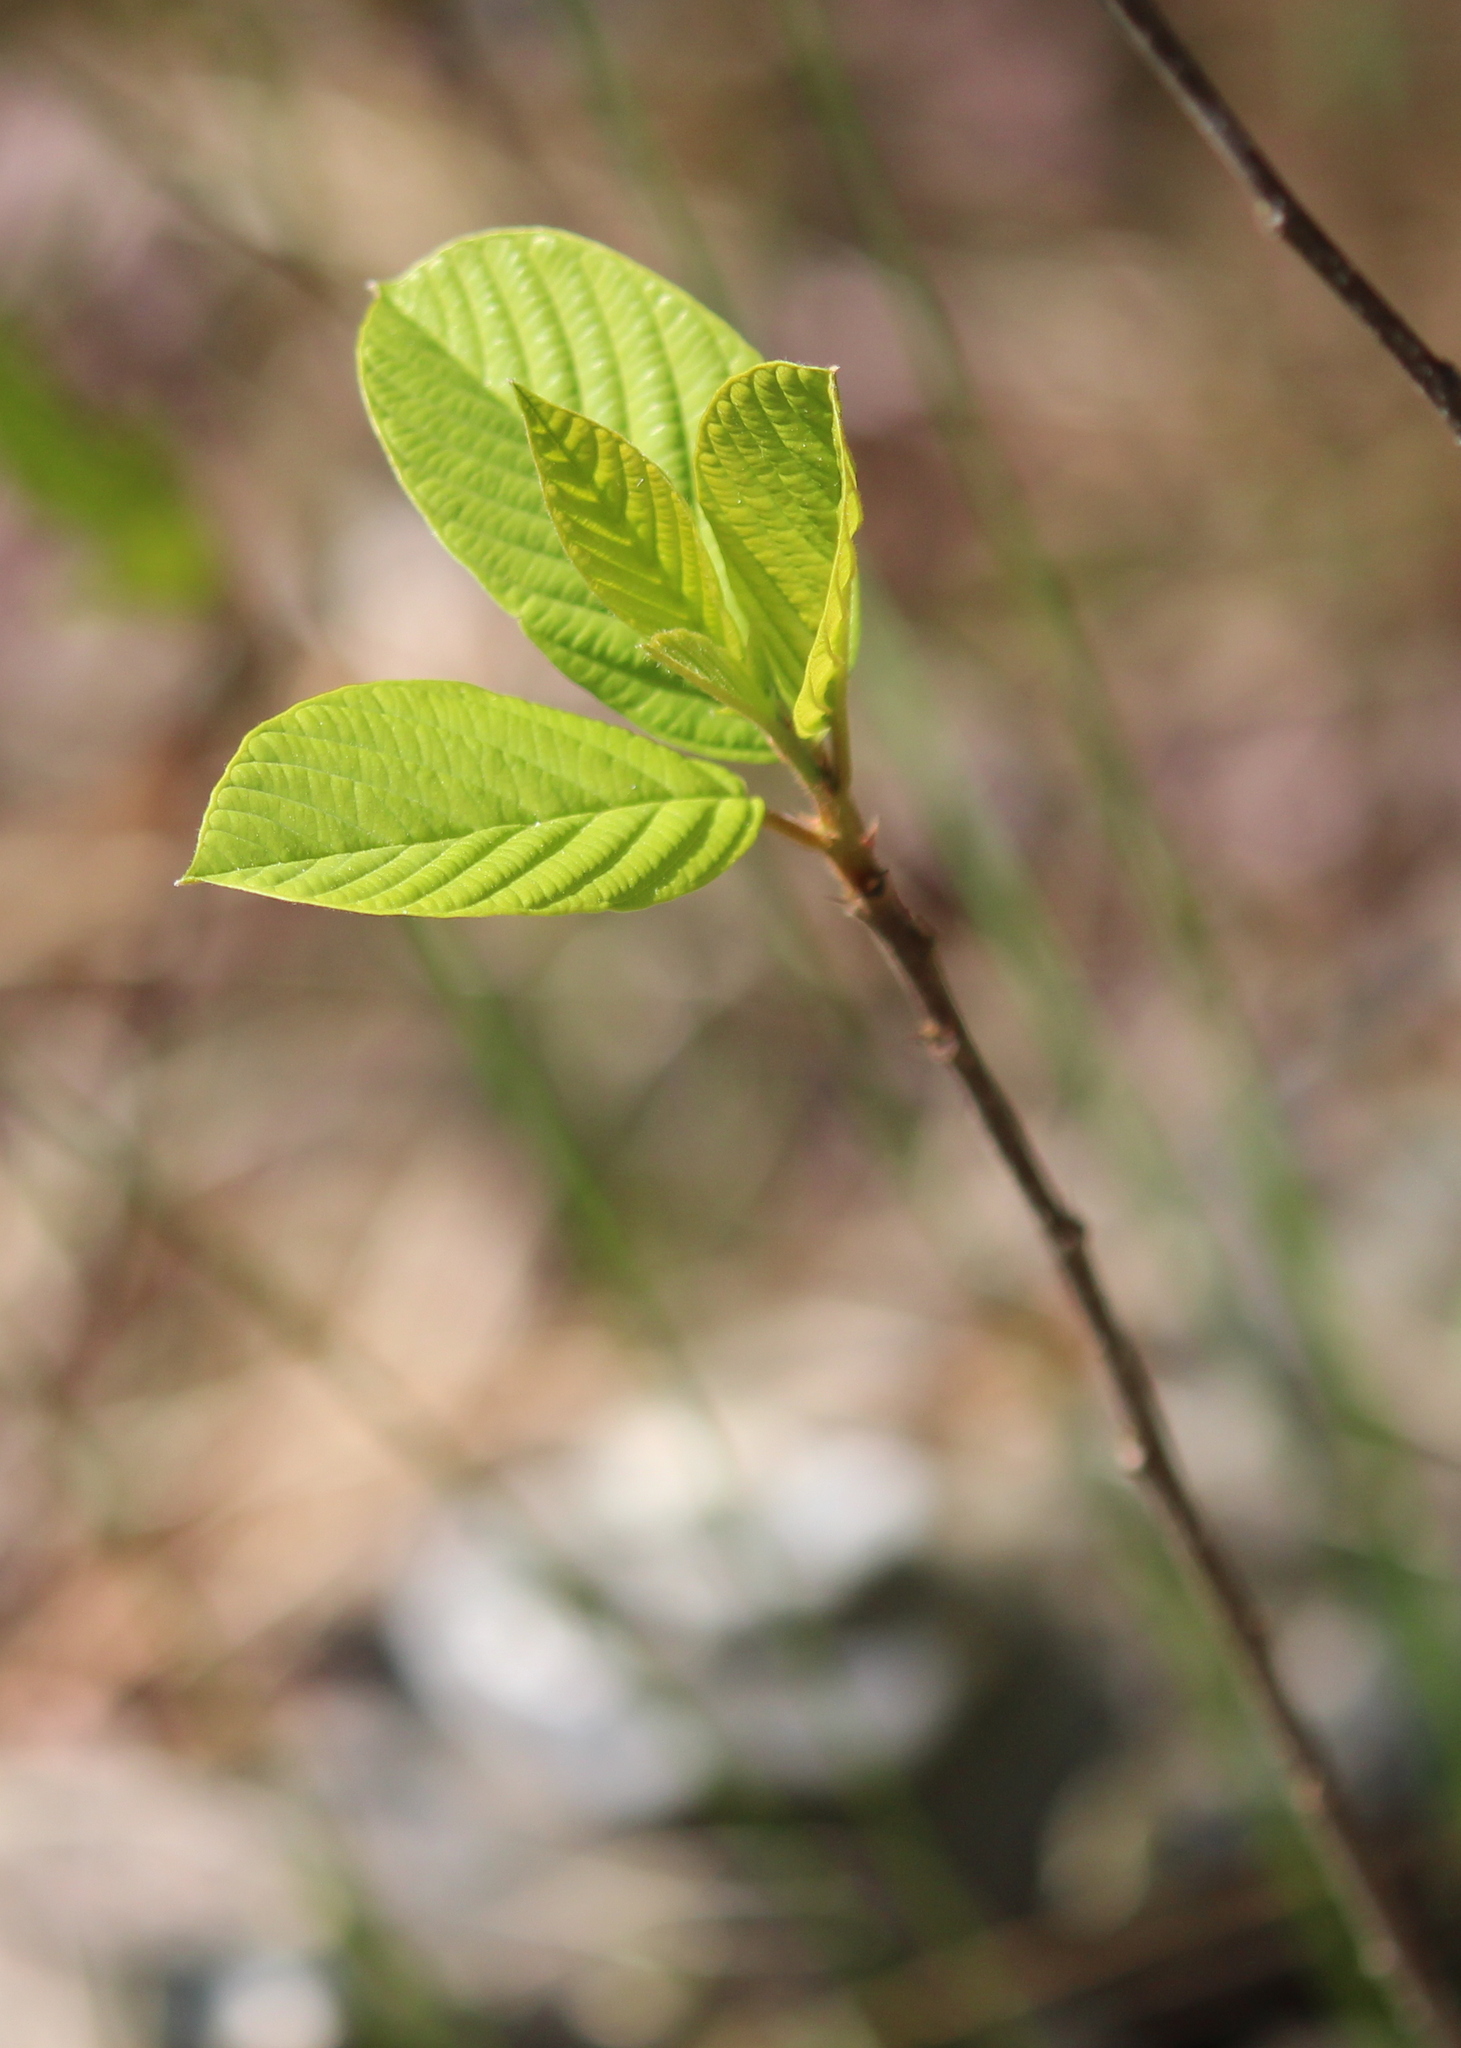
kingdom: Plantae
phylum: Tracheophyta
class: Magnoliopsida
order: Rosales
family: Rhamnaceae
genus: Frangula
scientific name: Frangula alnus
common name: Alder buckthorn
